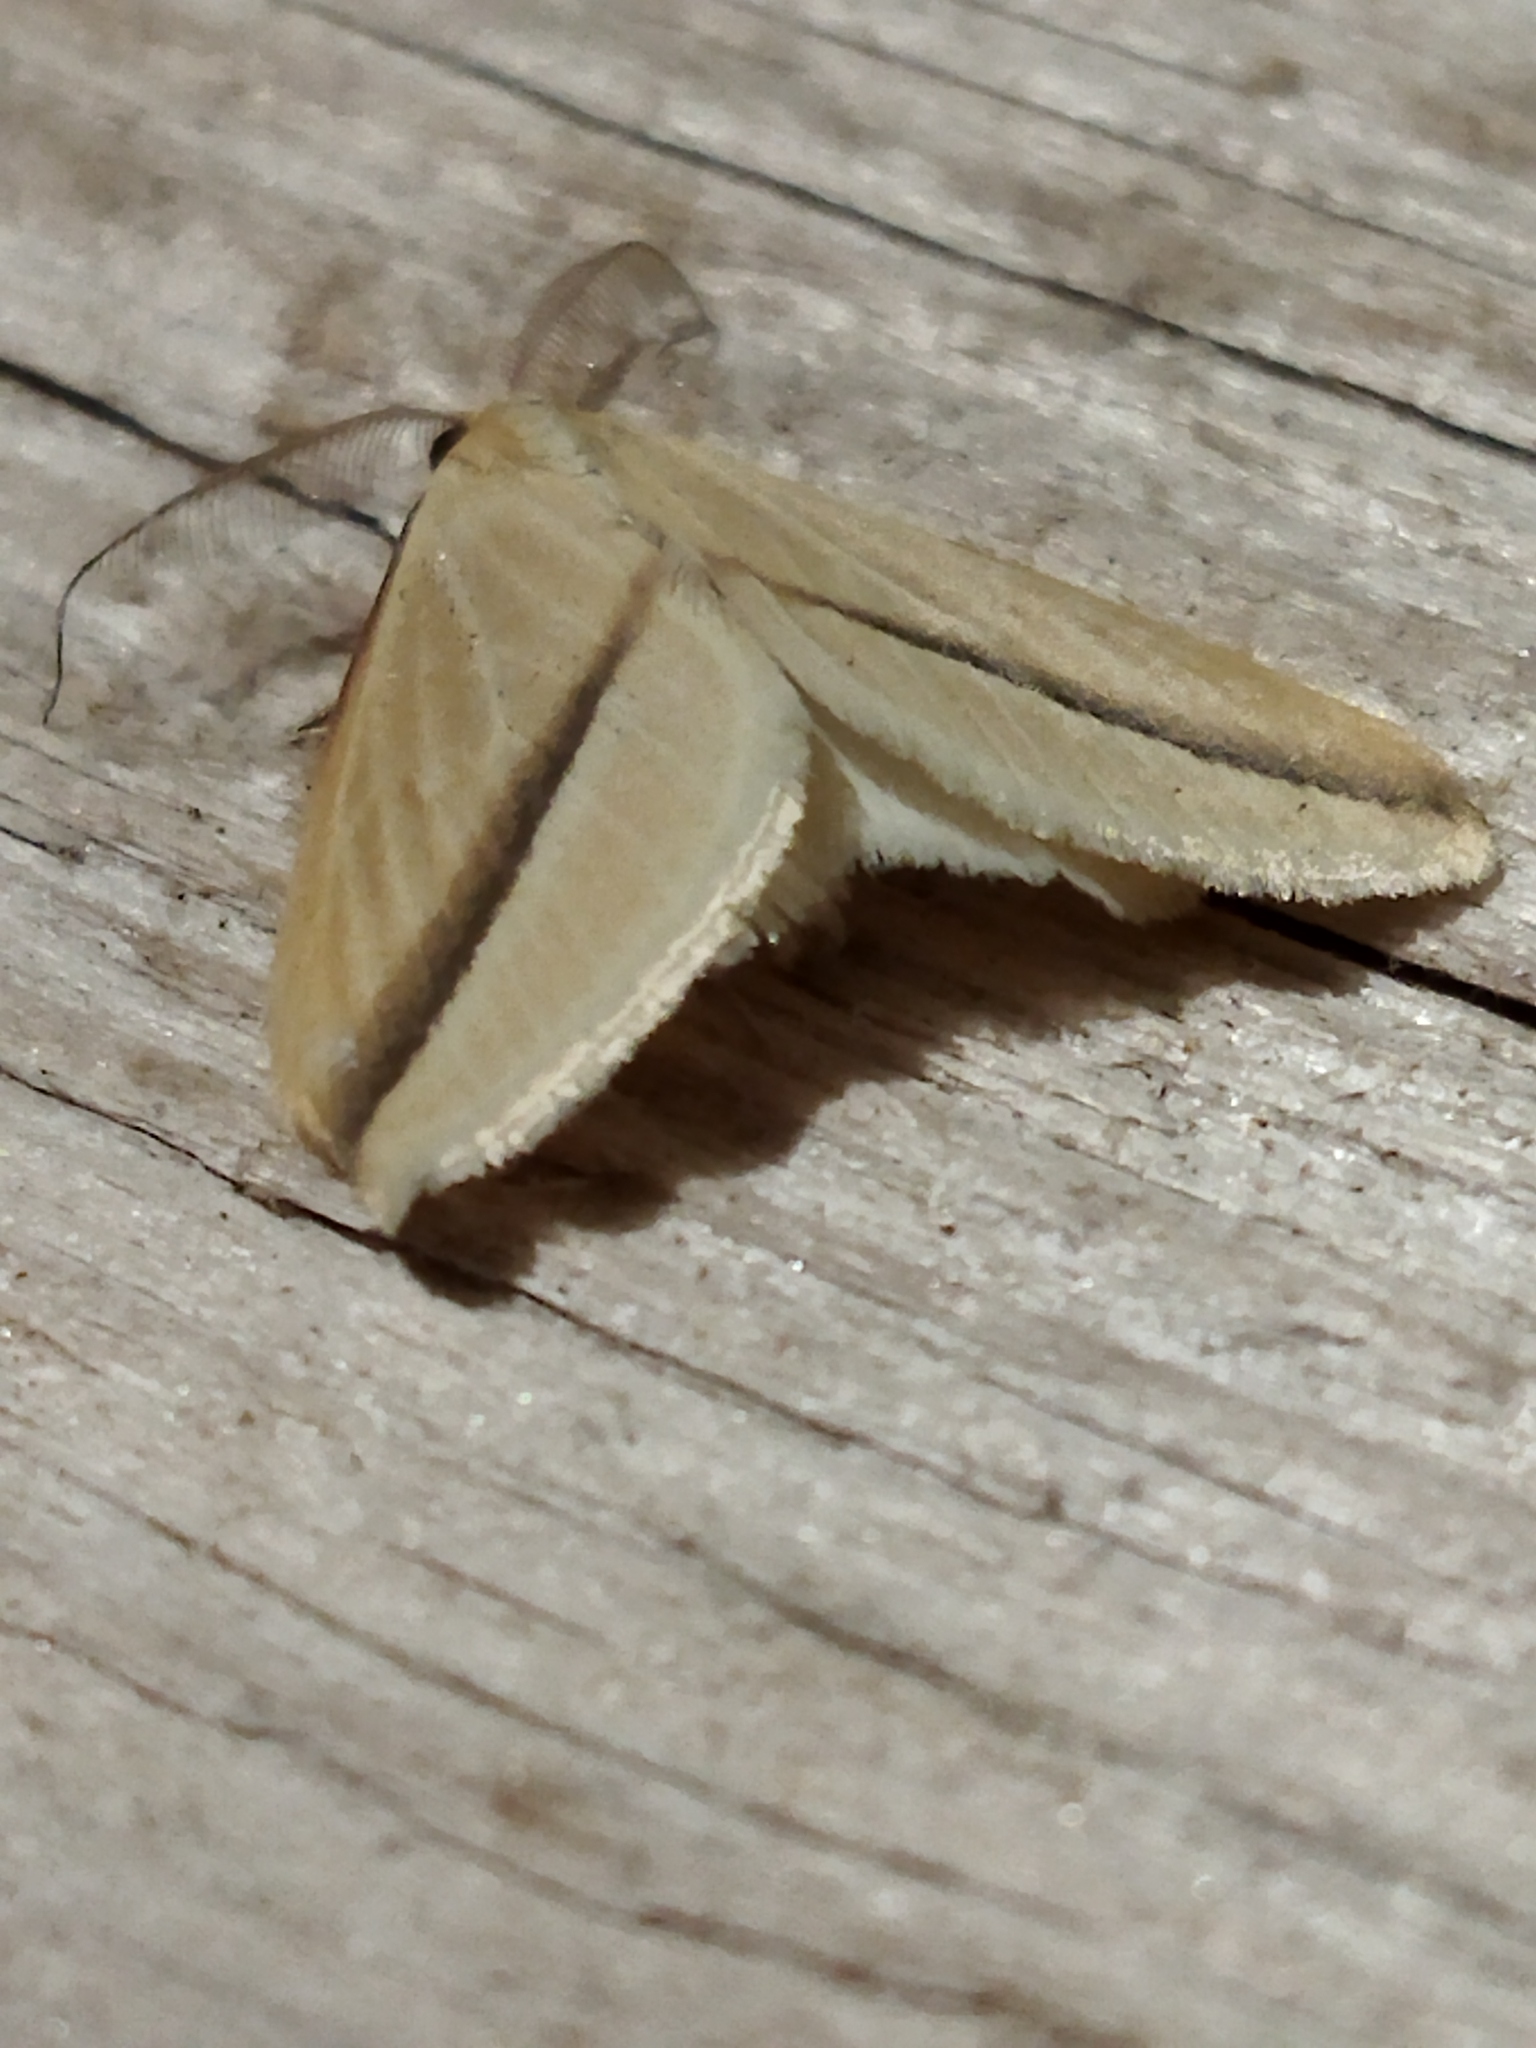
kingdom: Animalia
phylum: Arthropoda
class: Insecta
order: Lepidoptera
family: Geometridae
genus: Rhodometra
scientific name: Rhodometra sacraria
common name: Vestal
